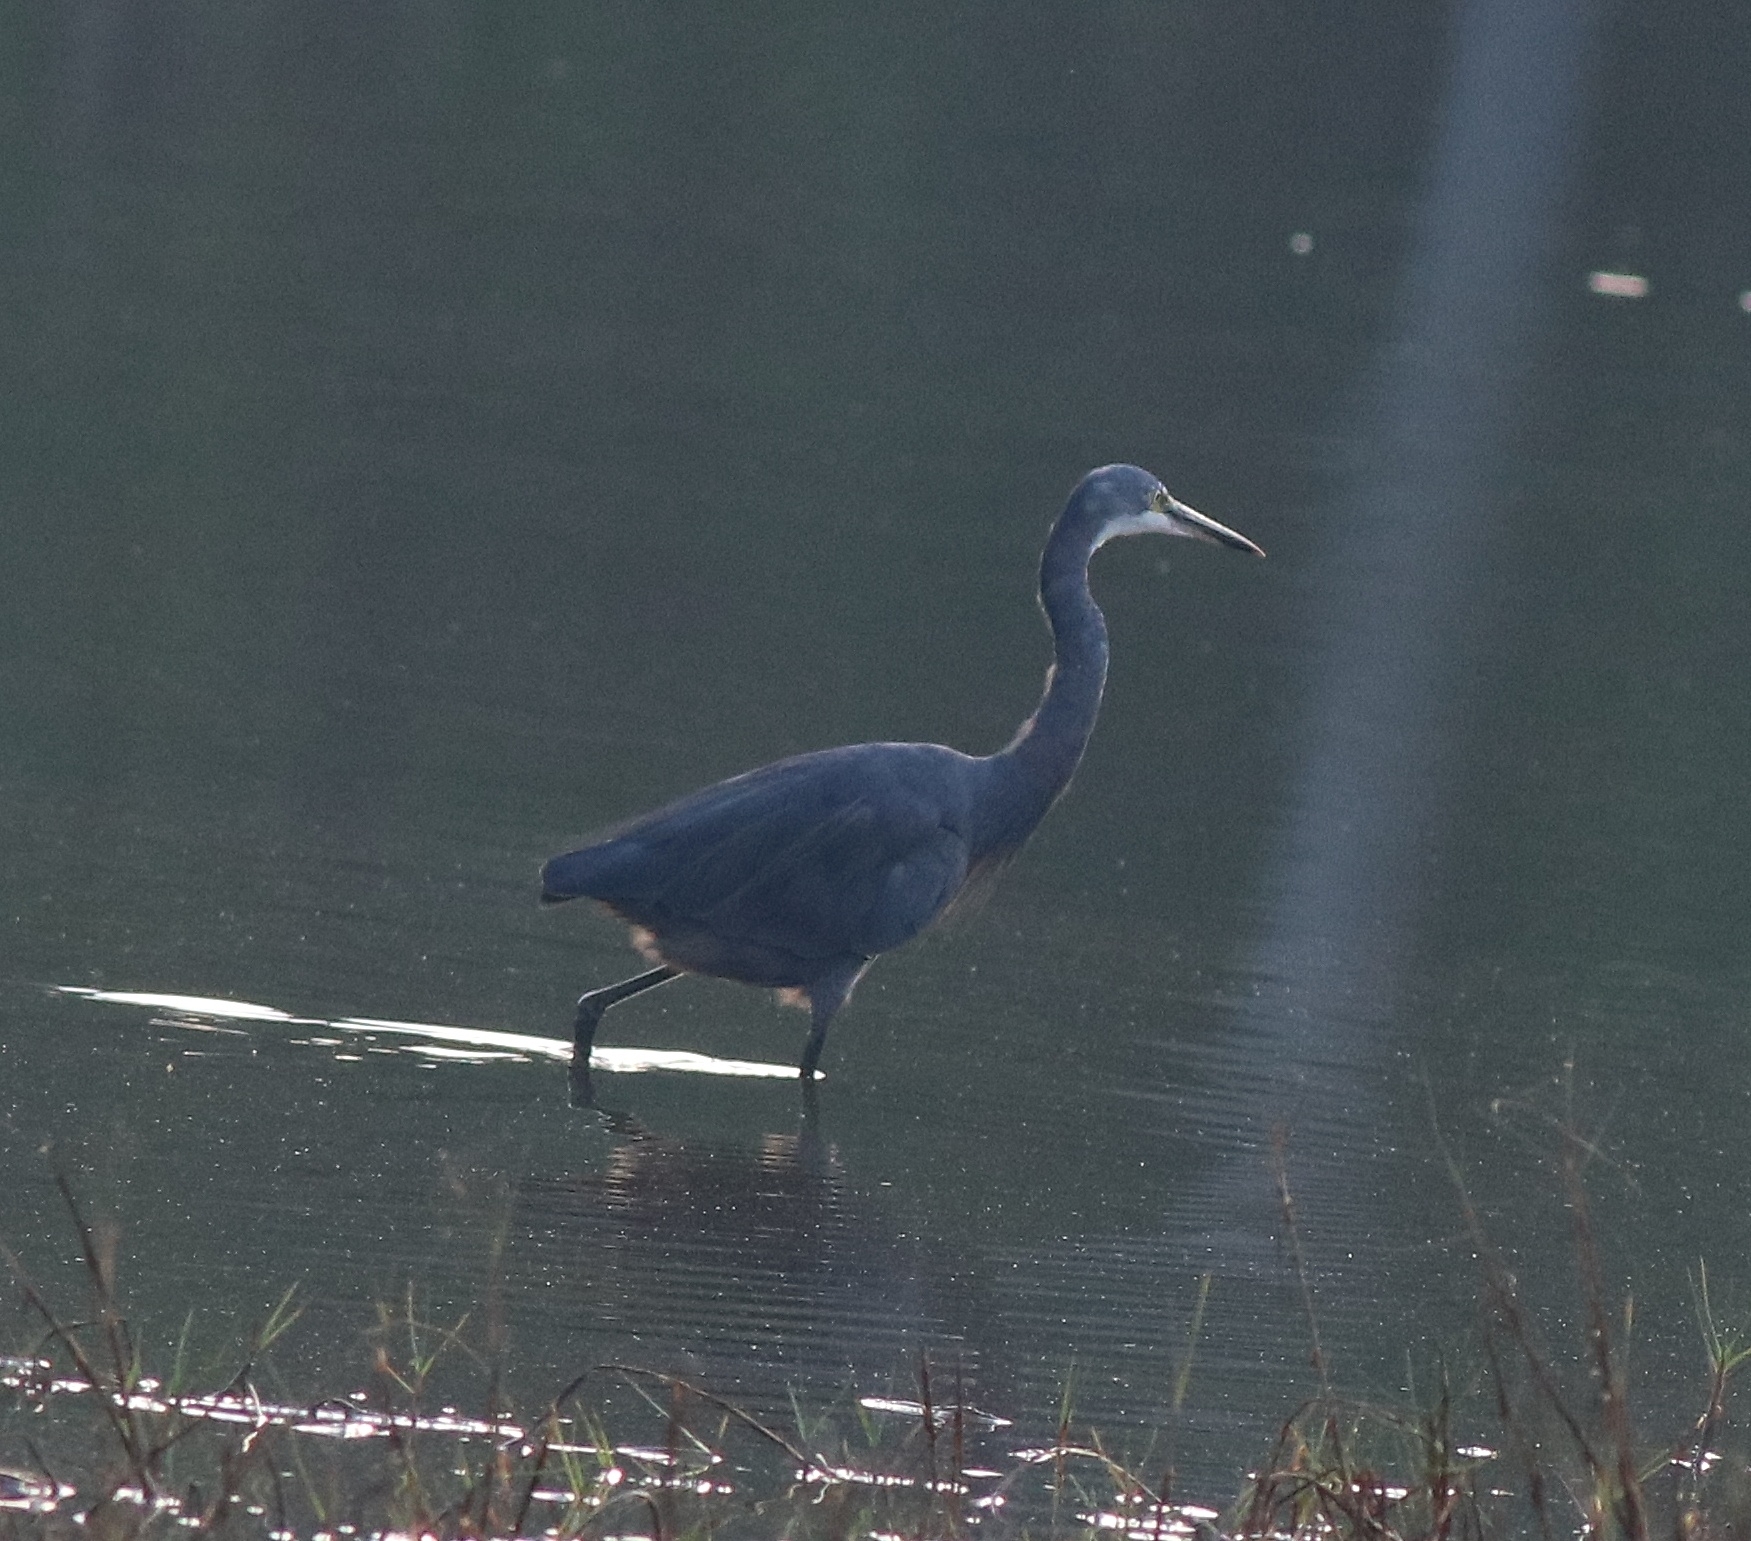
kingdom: Animalia
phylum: Chordata
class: Aves
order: Pelecaniformes
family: Ardeidae
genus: Egretta
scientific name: Egretta gularis
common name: Western reef-heron
